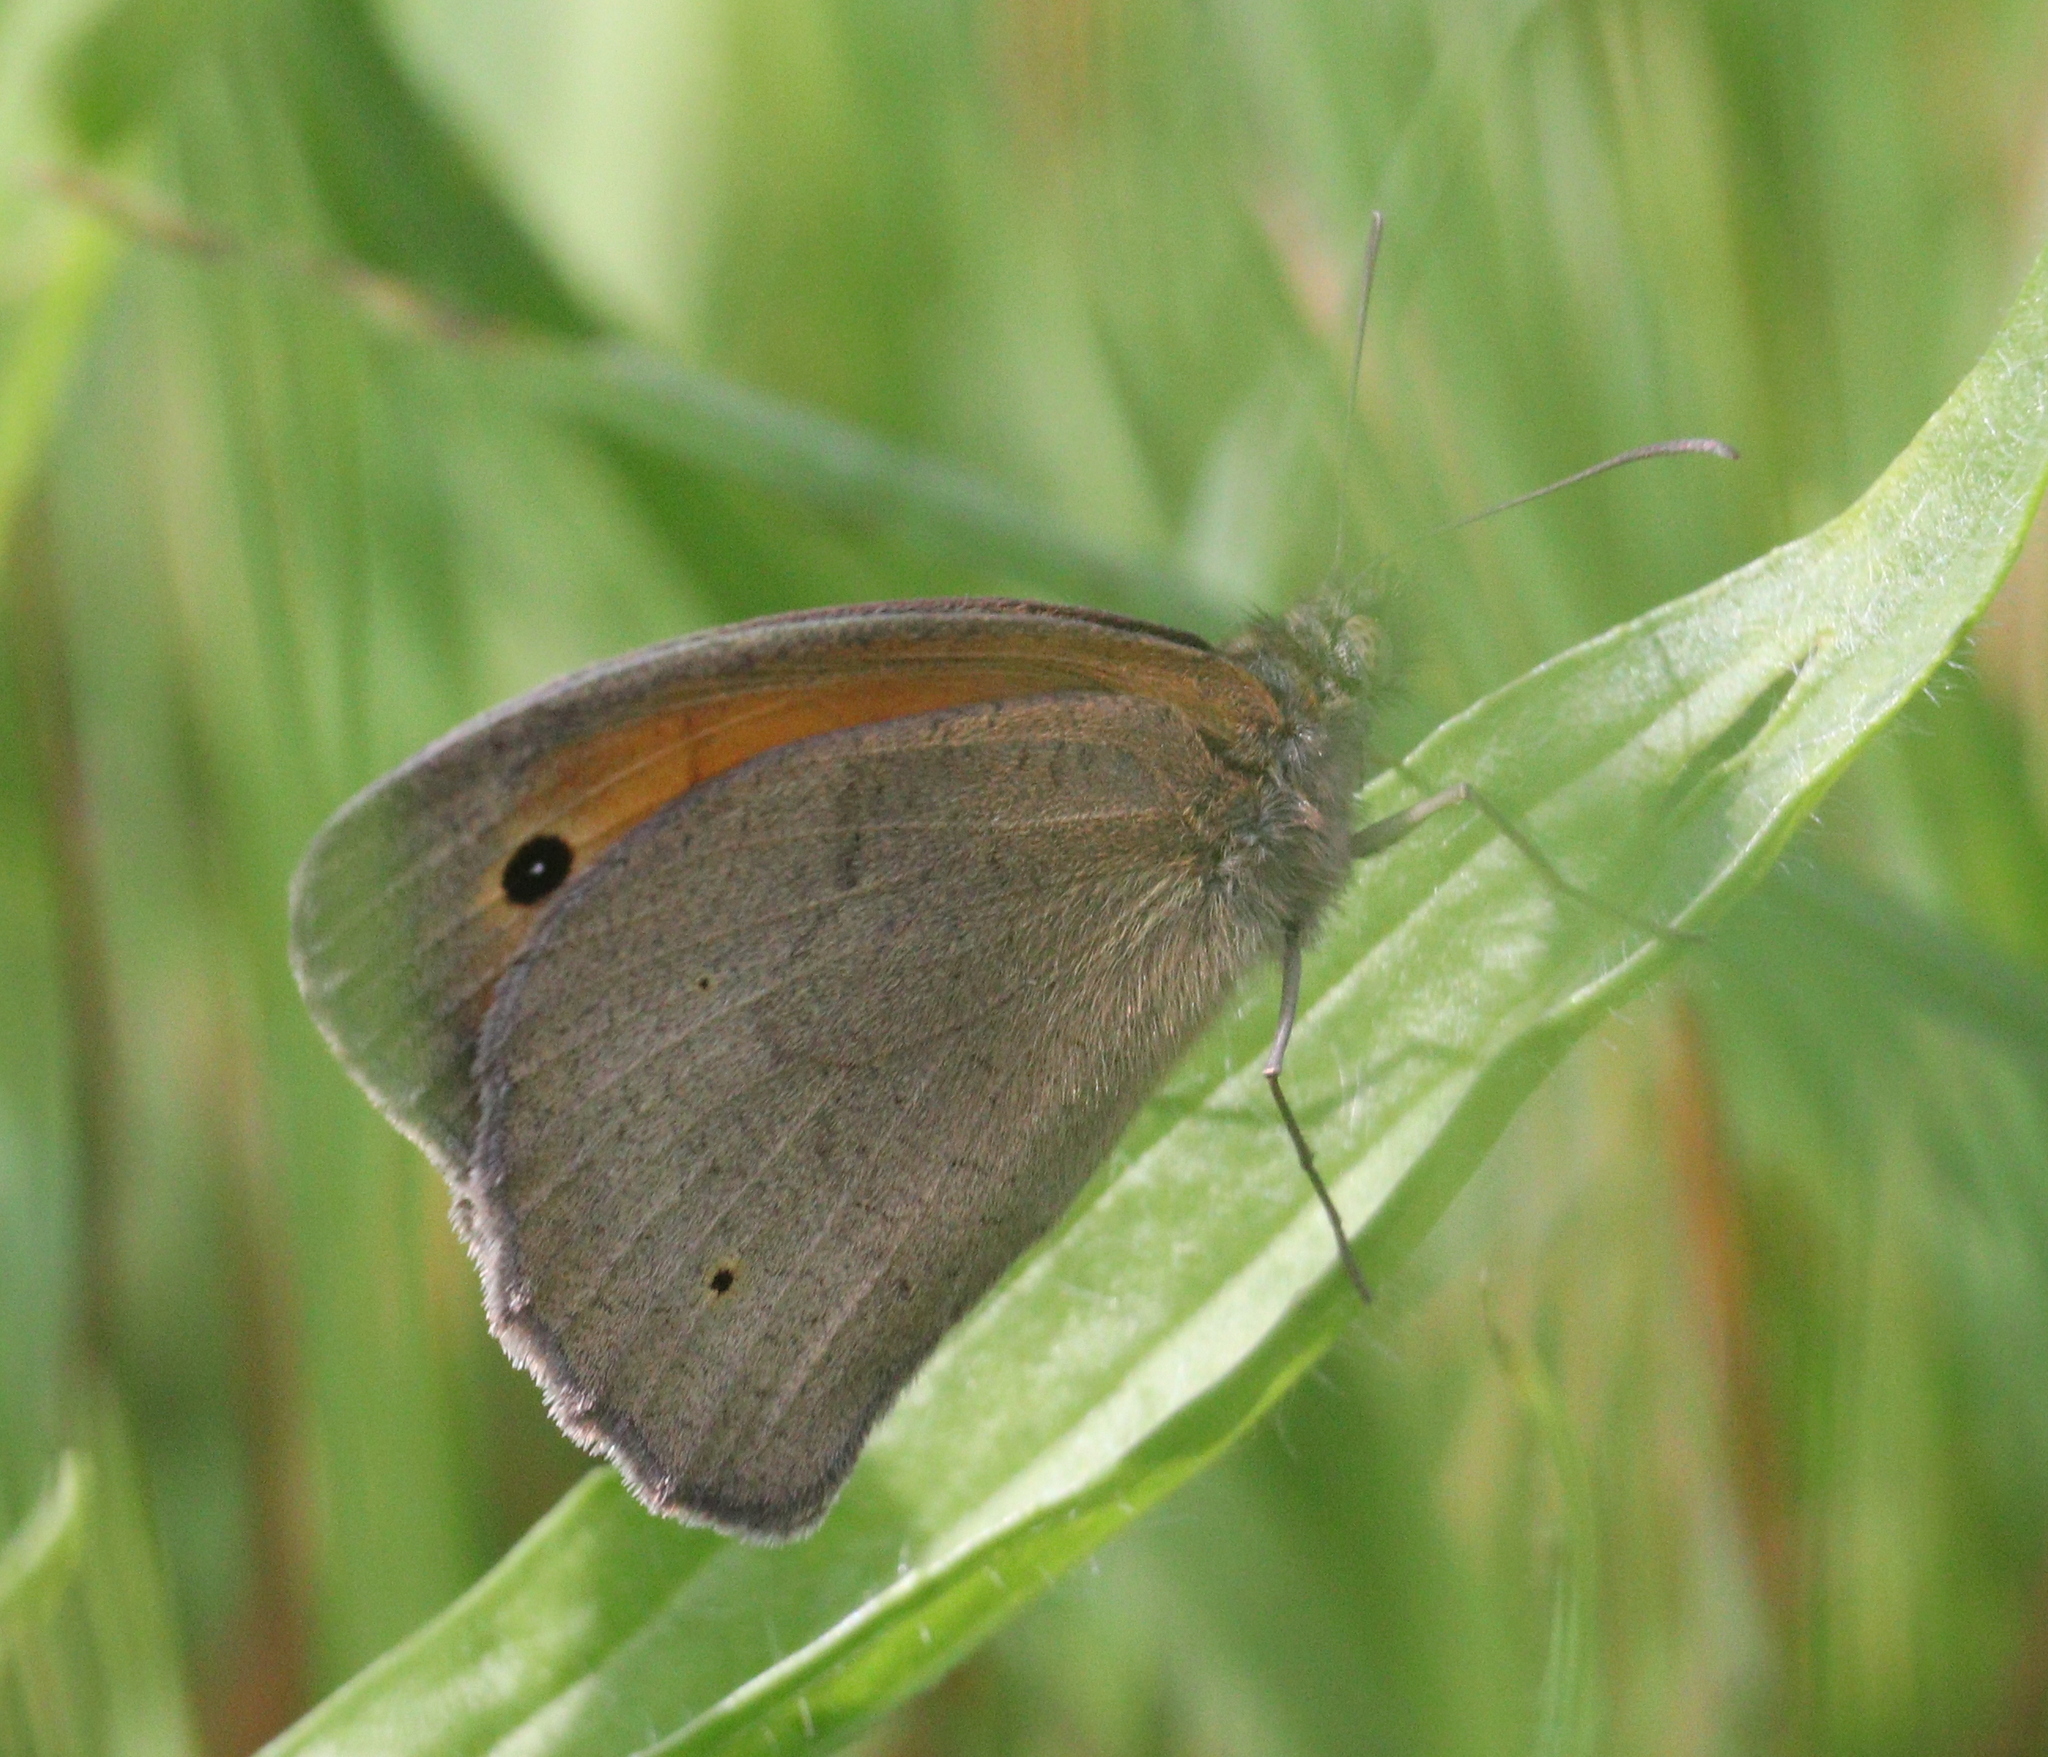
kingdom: Animalia
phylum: Arthropoda
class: Insecta
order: Lepidoptera
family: Nymphalidae
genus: Maniola
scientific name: Maniola jurtina
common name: Meadow brown
